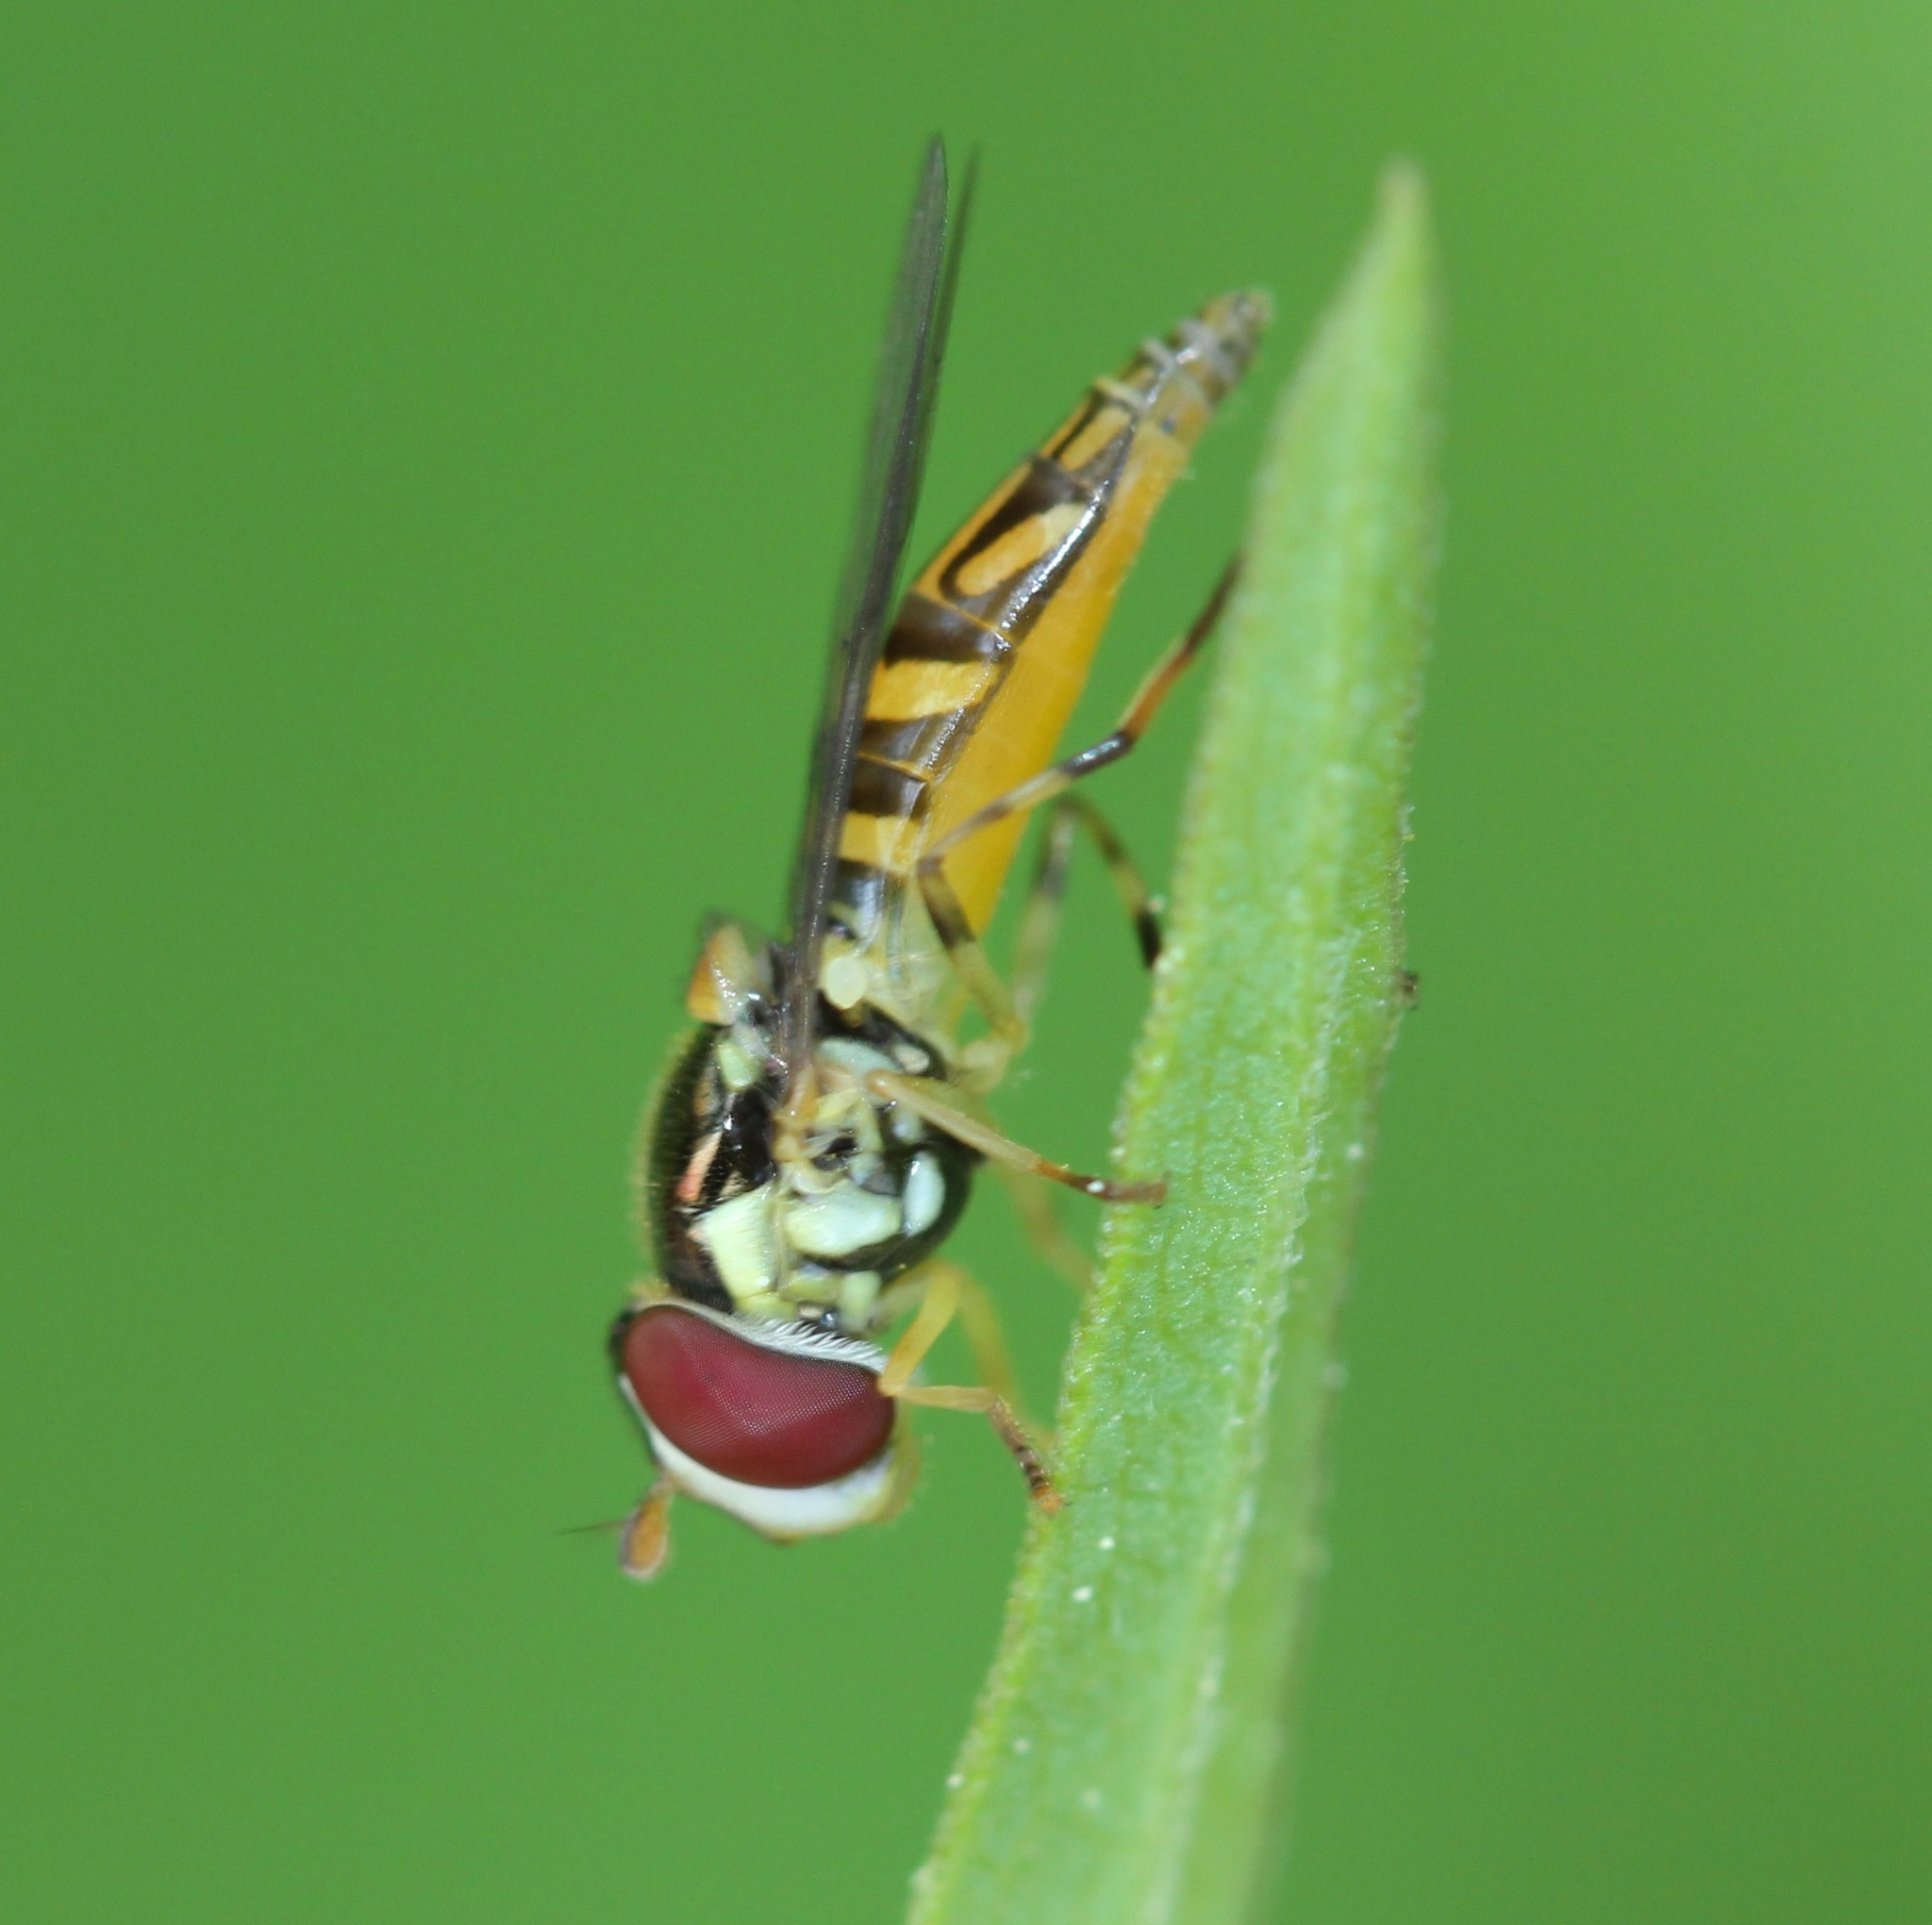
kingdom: Animalia
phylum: Arthropoda
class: Insecta
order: Diptera
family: Syrphidae
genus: Allograpta
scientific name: Allograpta obliqua
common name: Common oblique syrphid
